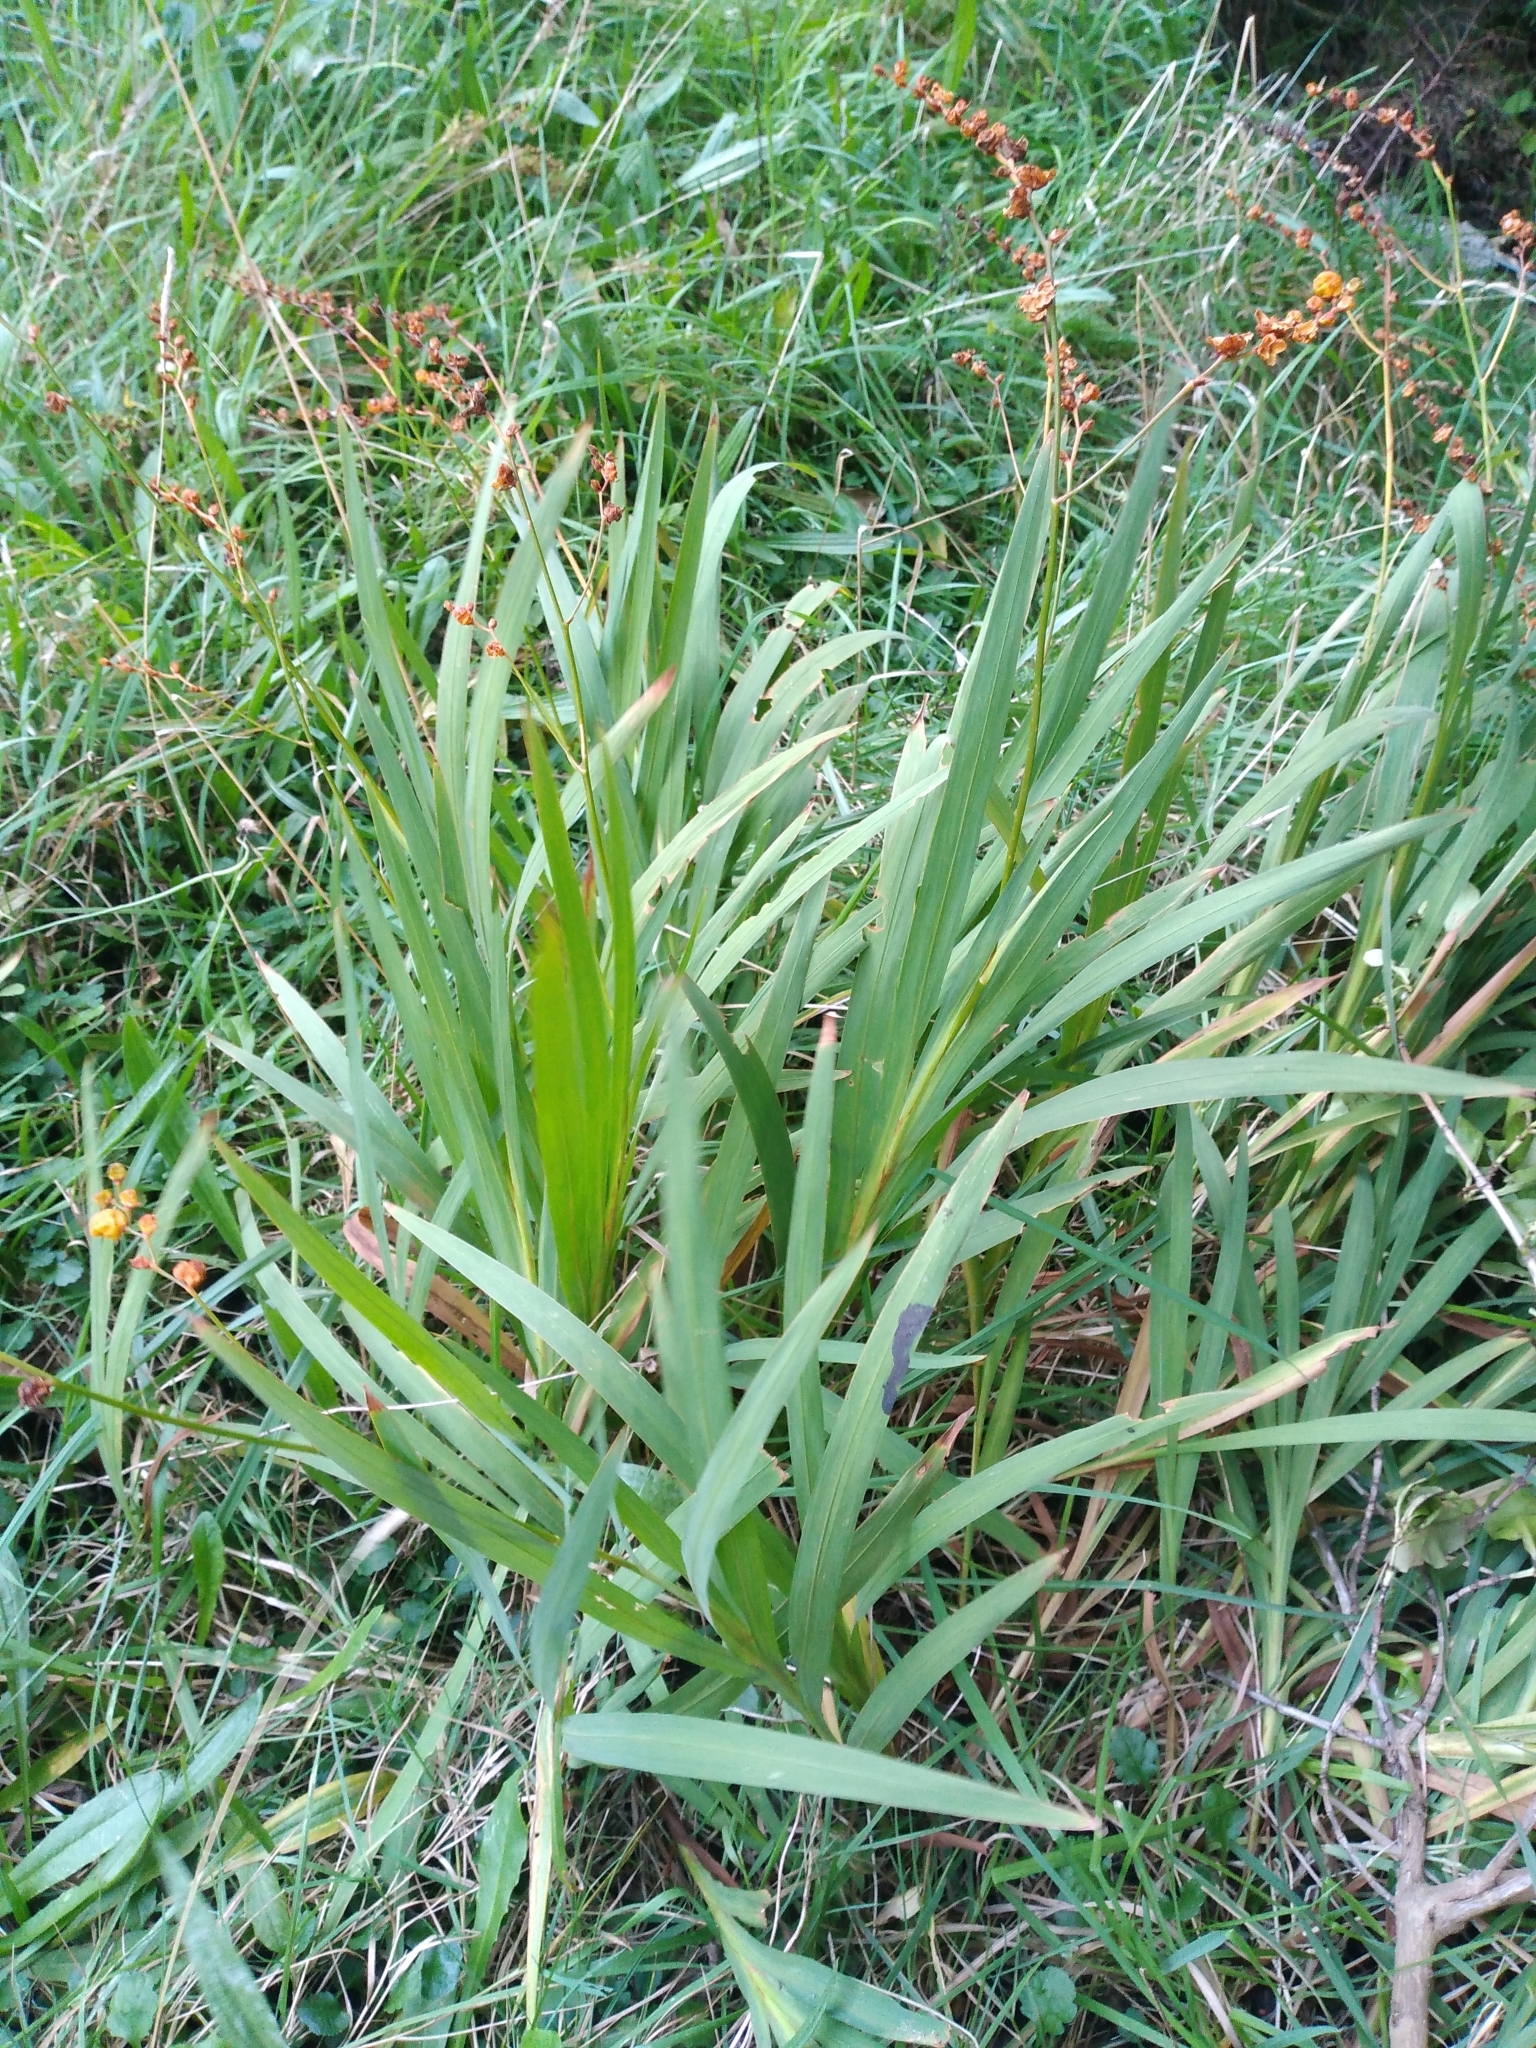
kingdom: Plantae
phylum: Tracheophyta
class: Liliopsida
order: Asparagales
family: Iridaceae
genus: Crocosmia
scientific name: Crocosmia crocosmiiflora
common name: Montbretia
